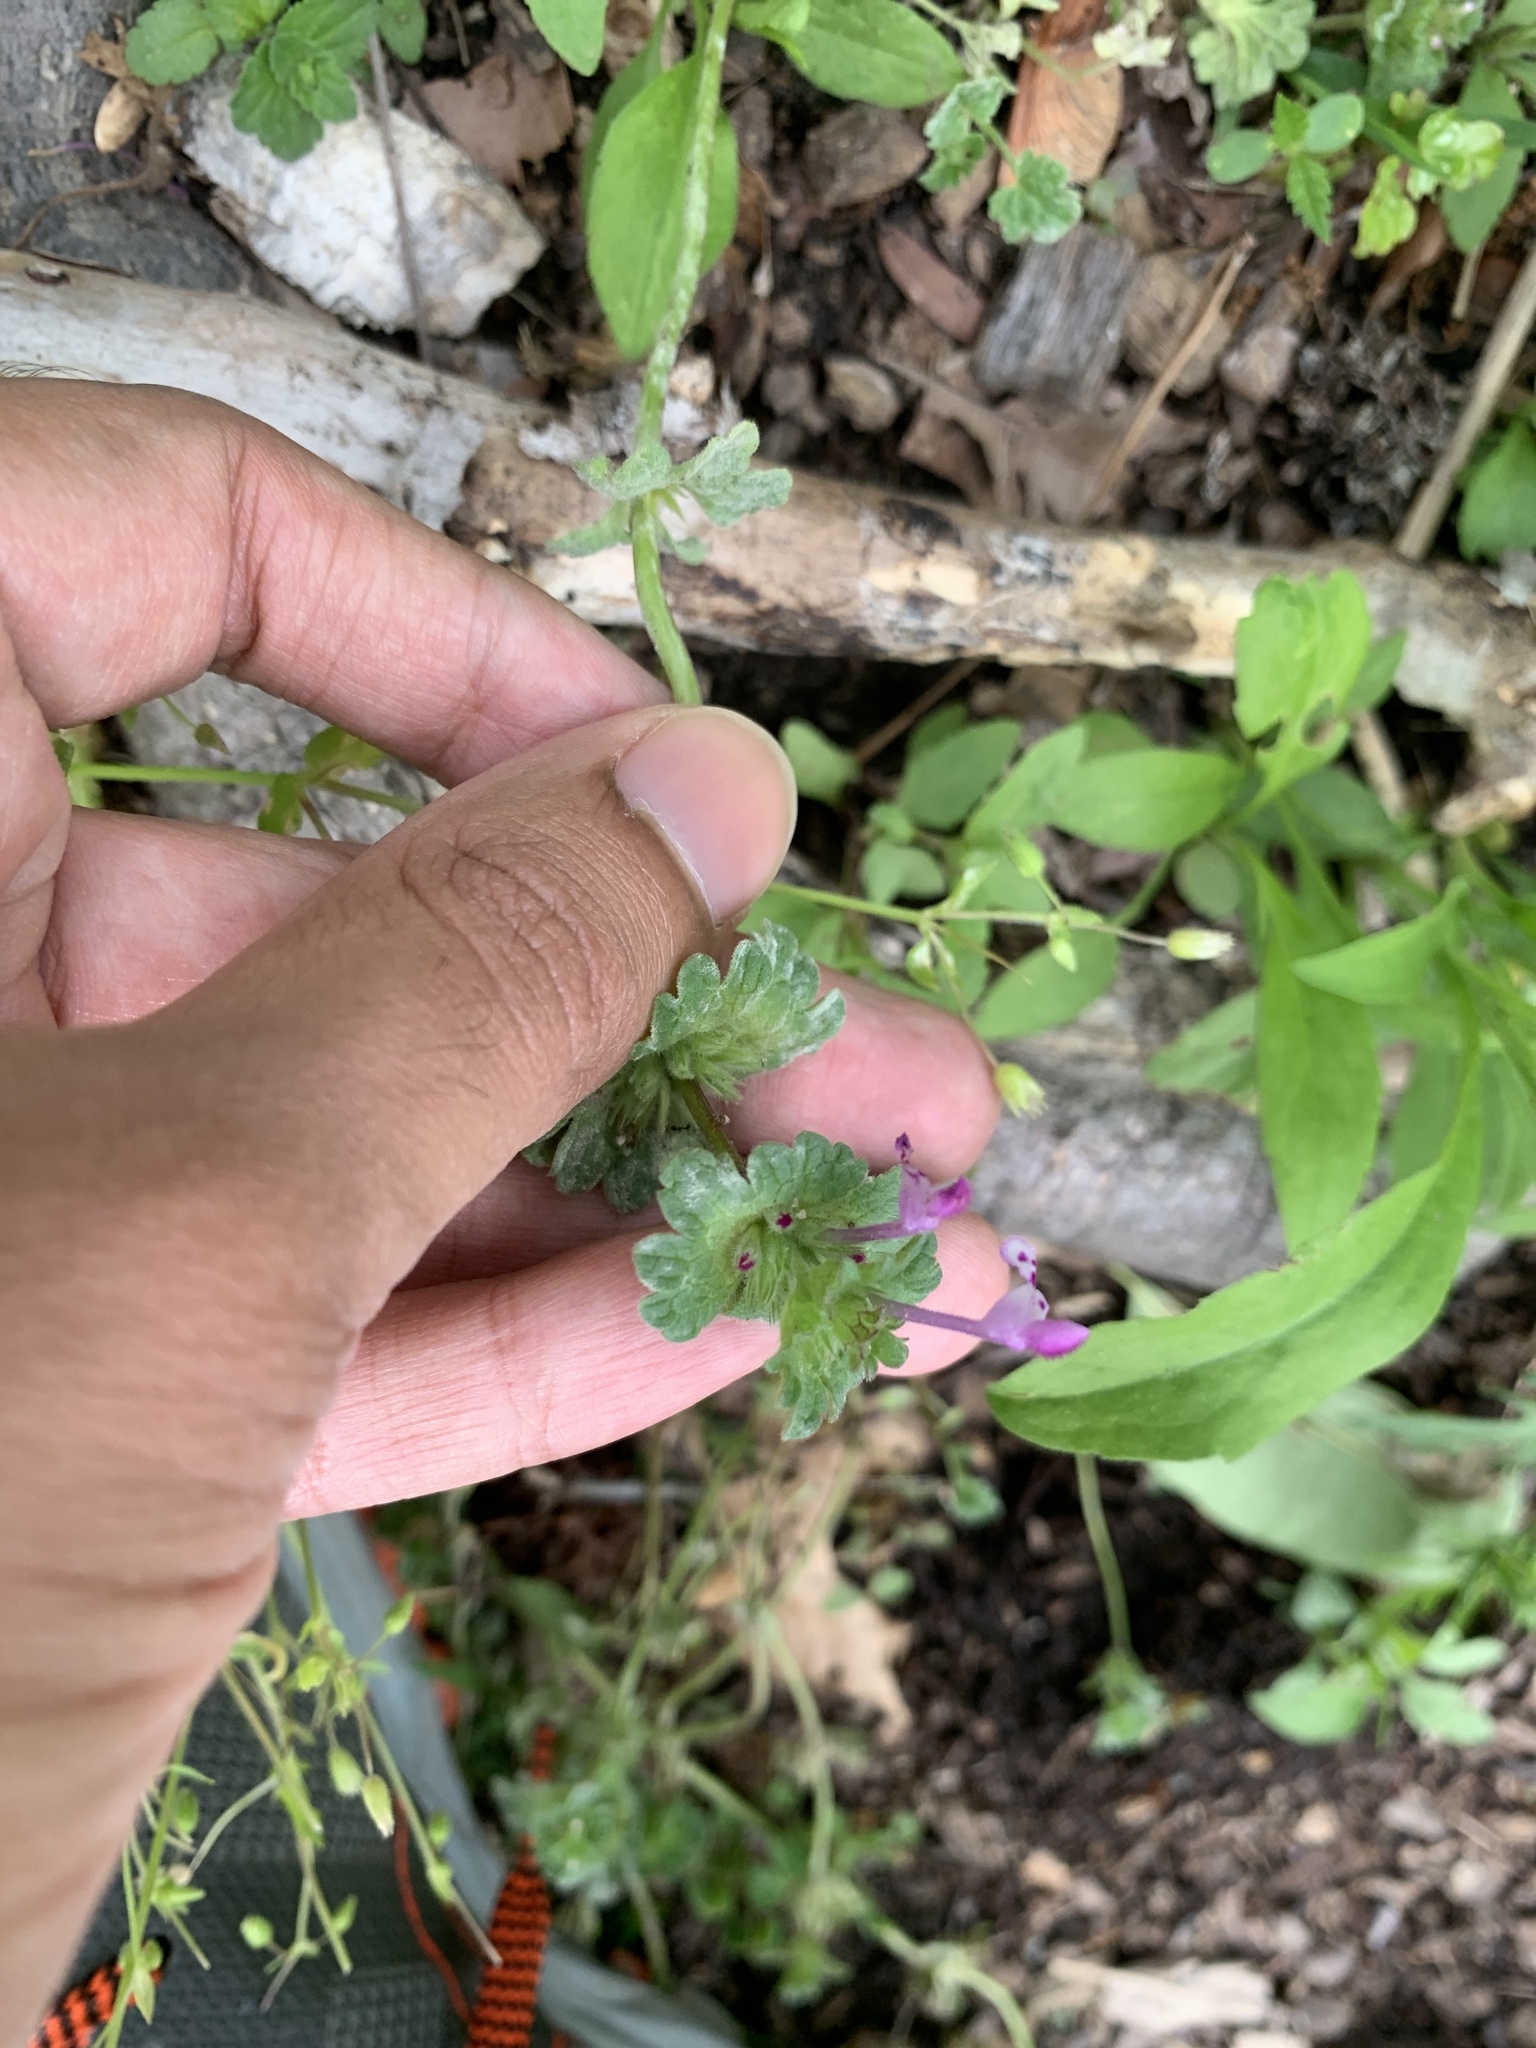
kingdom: Plantae
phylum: Tracheophyta
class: Magnoliopsida
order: Lamiales
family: Lamiaceae
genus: Lamium
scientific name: Lamium amplexicaule
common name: Henbit dead-nettle
